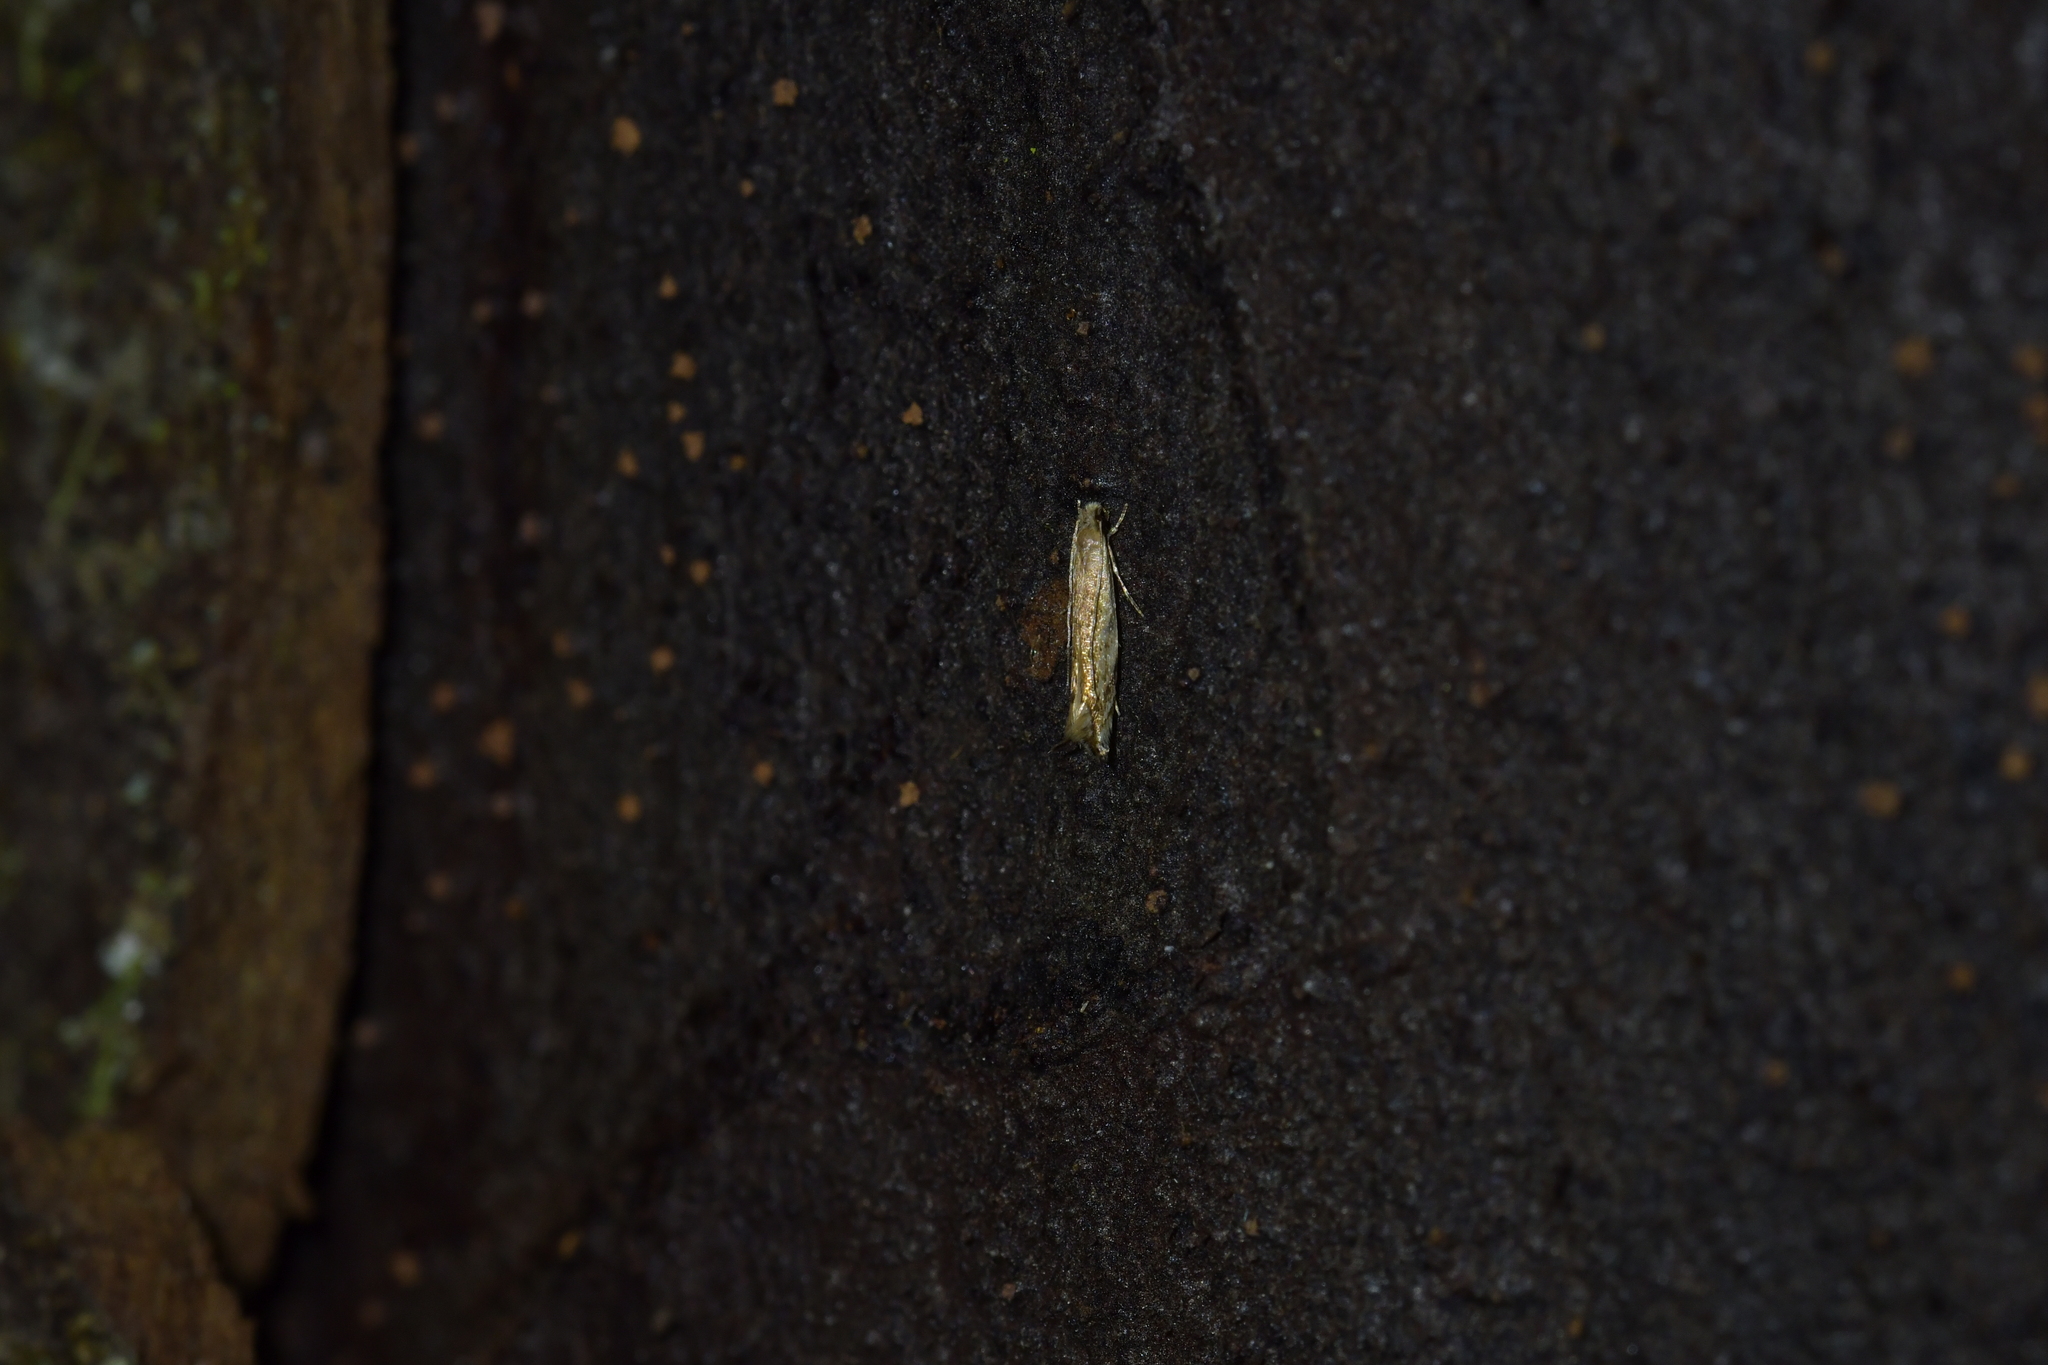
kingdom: Animalia
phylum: Arthropoda
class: Insecta
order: Lepidoptera
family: Tineidae
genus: Erechthias
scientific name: Erechthias exospila
